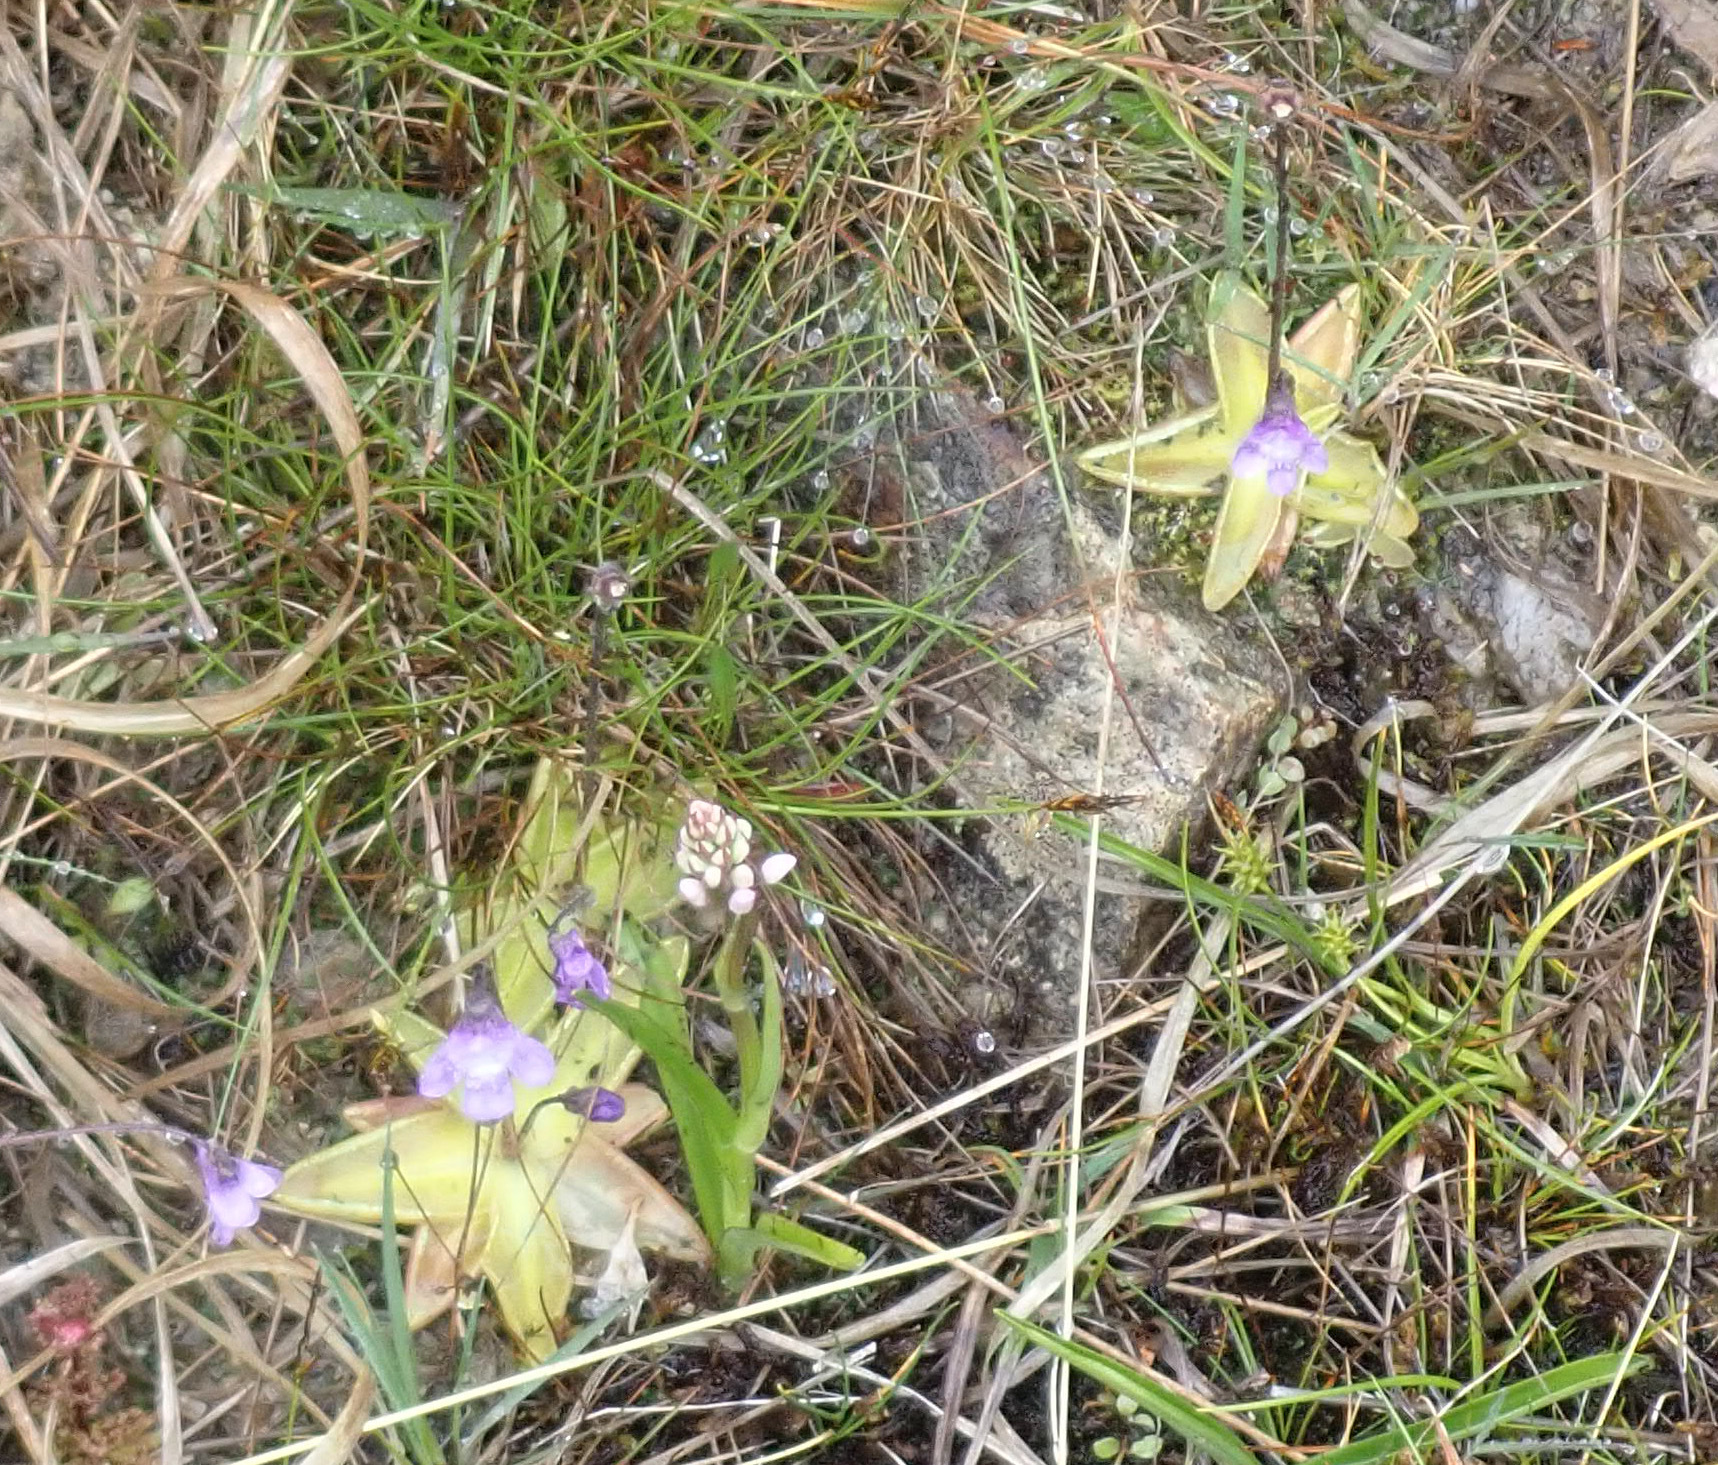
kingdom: Plantae
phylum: Tracheophyta
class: Magnoliopsida
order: Lamiales
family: Lentibulariaceae
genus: Pinguicula
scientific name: Pinguicula vulgaris
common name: Common butterwort
